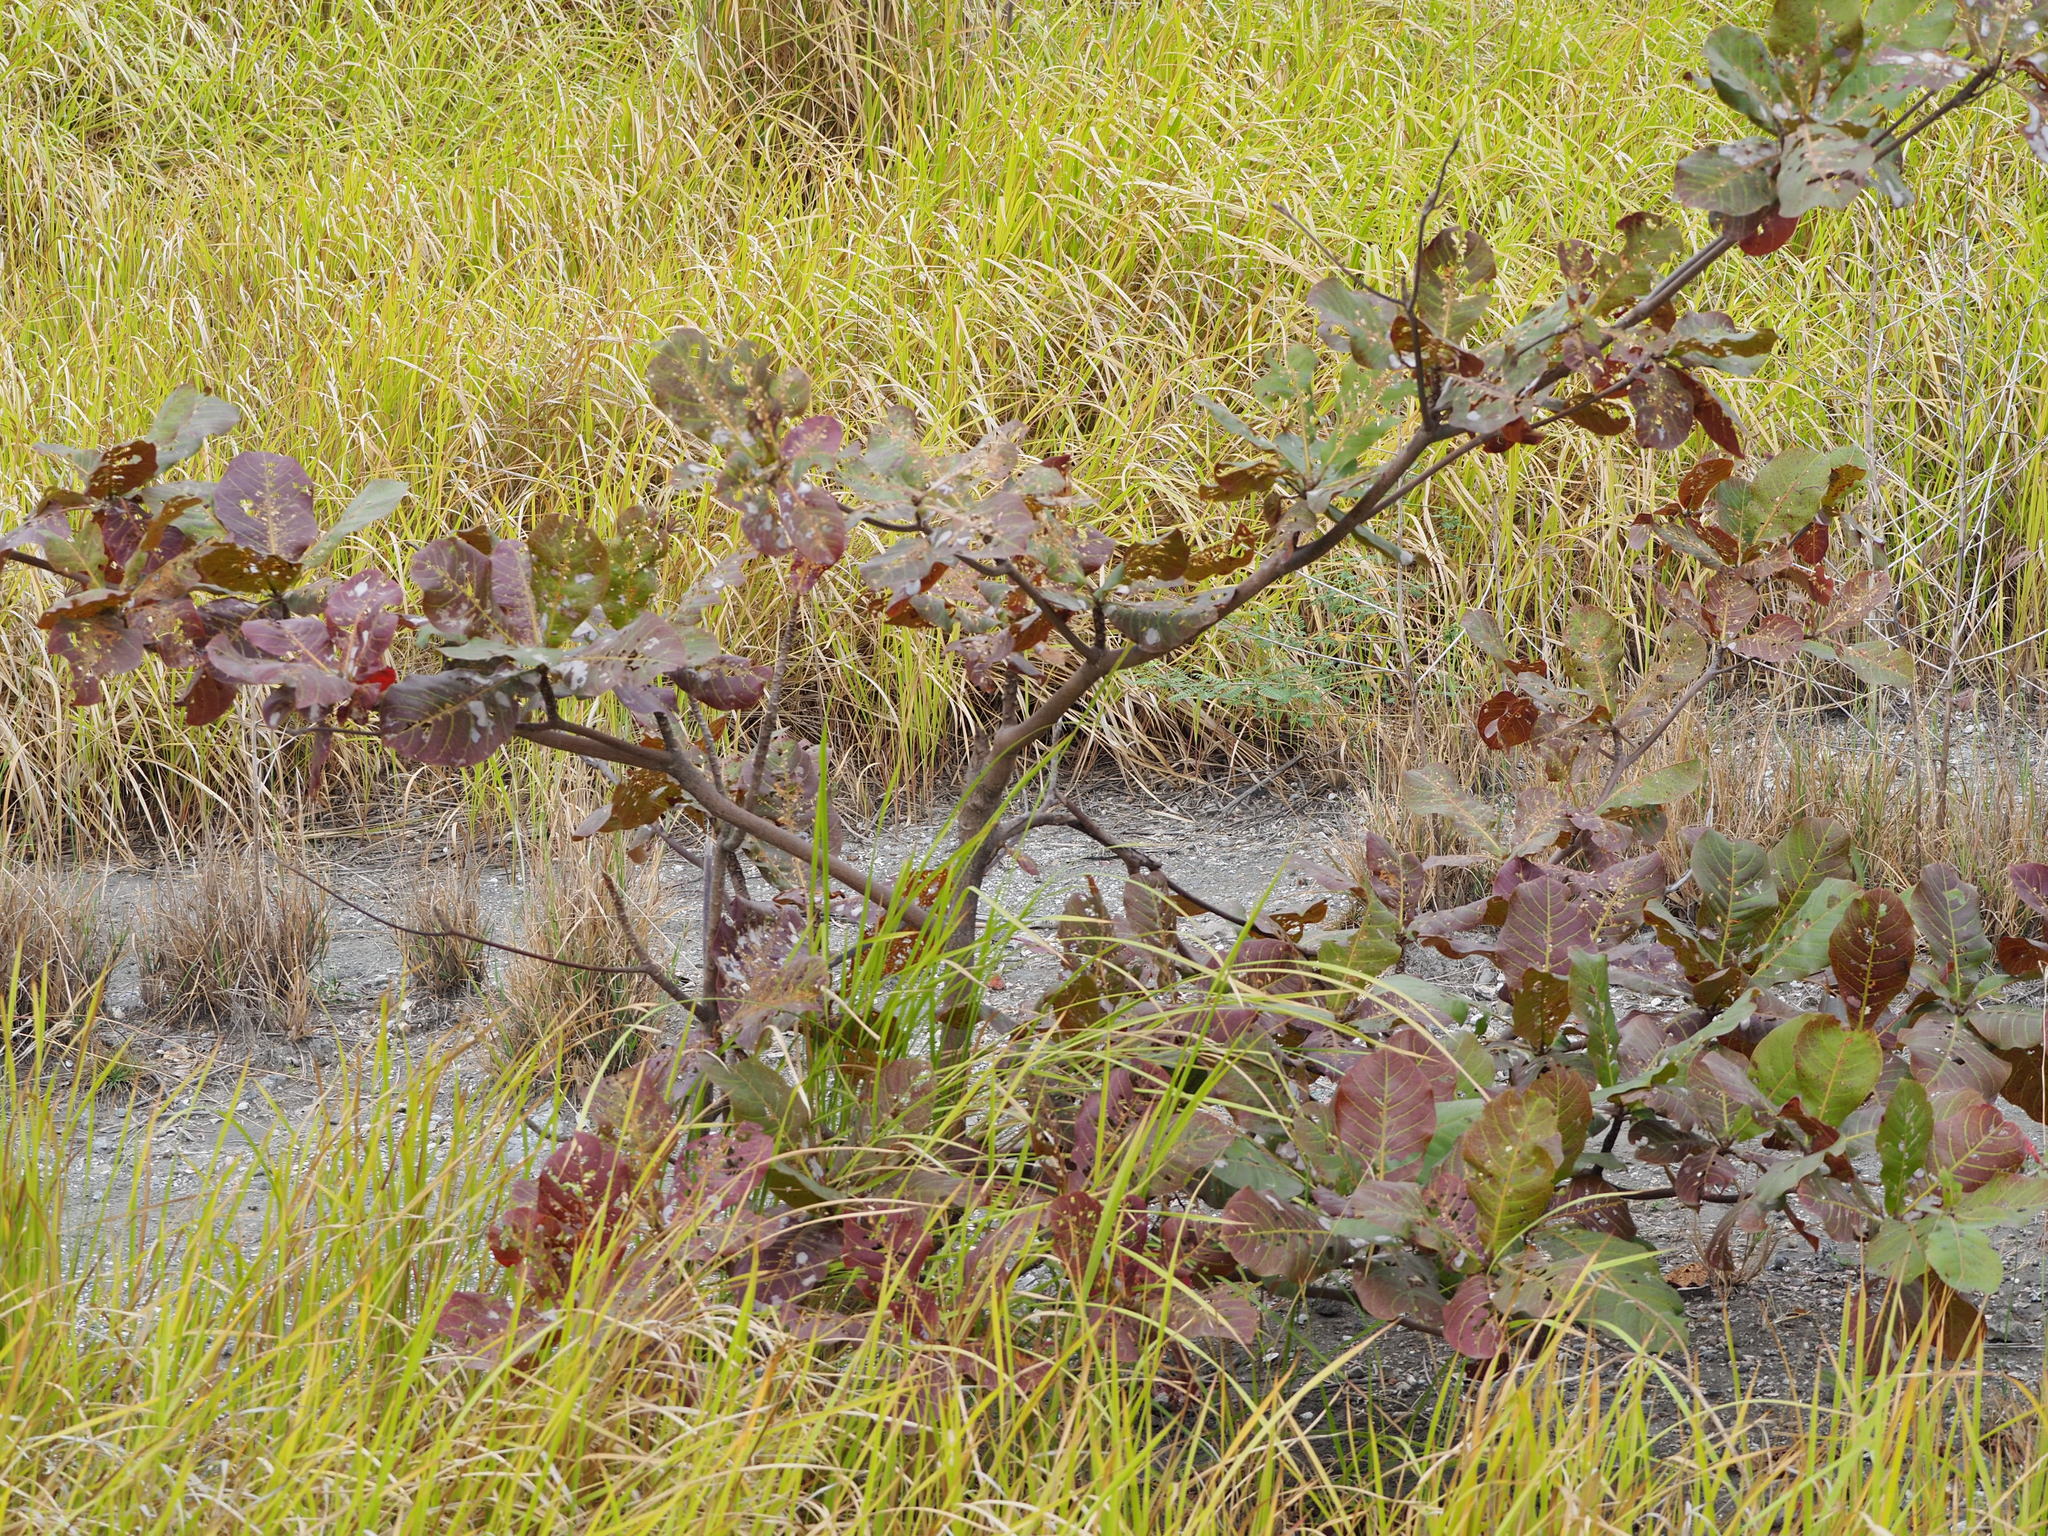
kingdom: Plantae
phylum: Tracheophyta
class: Magnoliopsida
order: Myrtales
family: Combretaceae
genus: Terminalia
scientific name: Terminalia catappa
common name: Tropical almond
